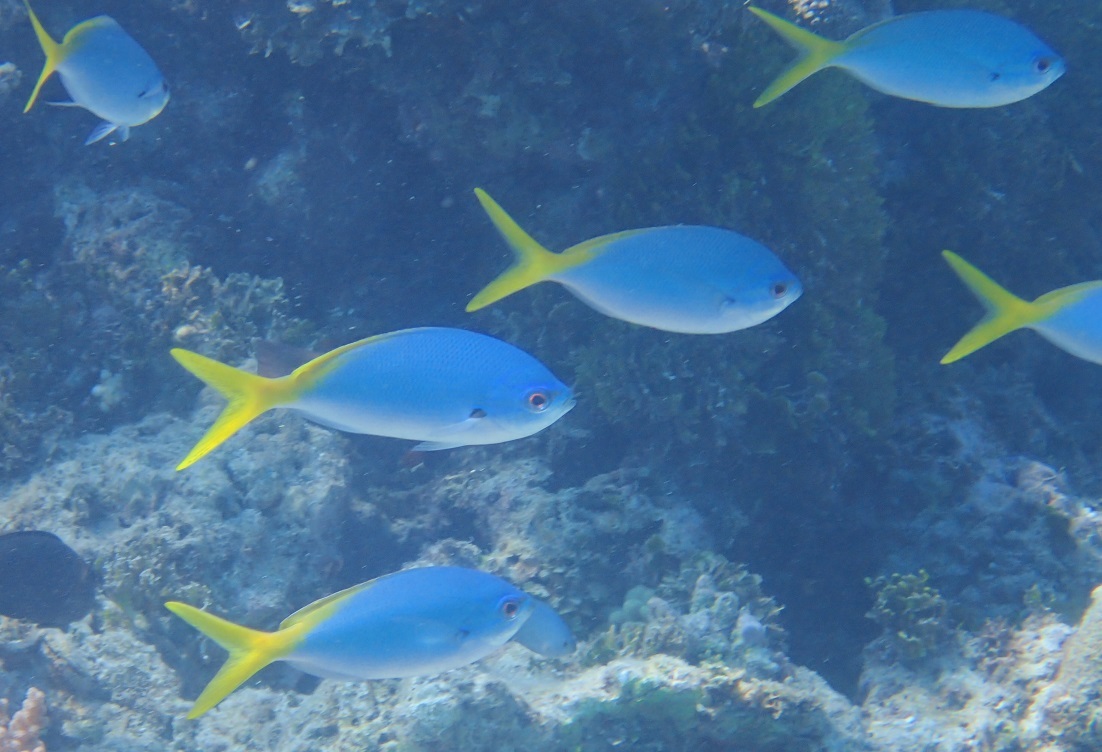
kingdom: Animalia
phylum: Chordata
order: Perciformes
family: Caesionidae
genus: Caesio
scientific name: Caesio cuning
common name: Red-bellied fusilier
